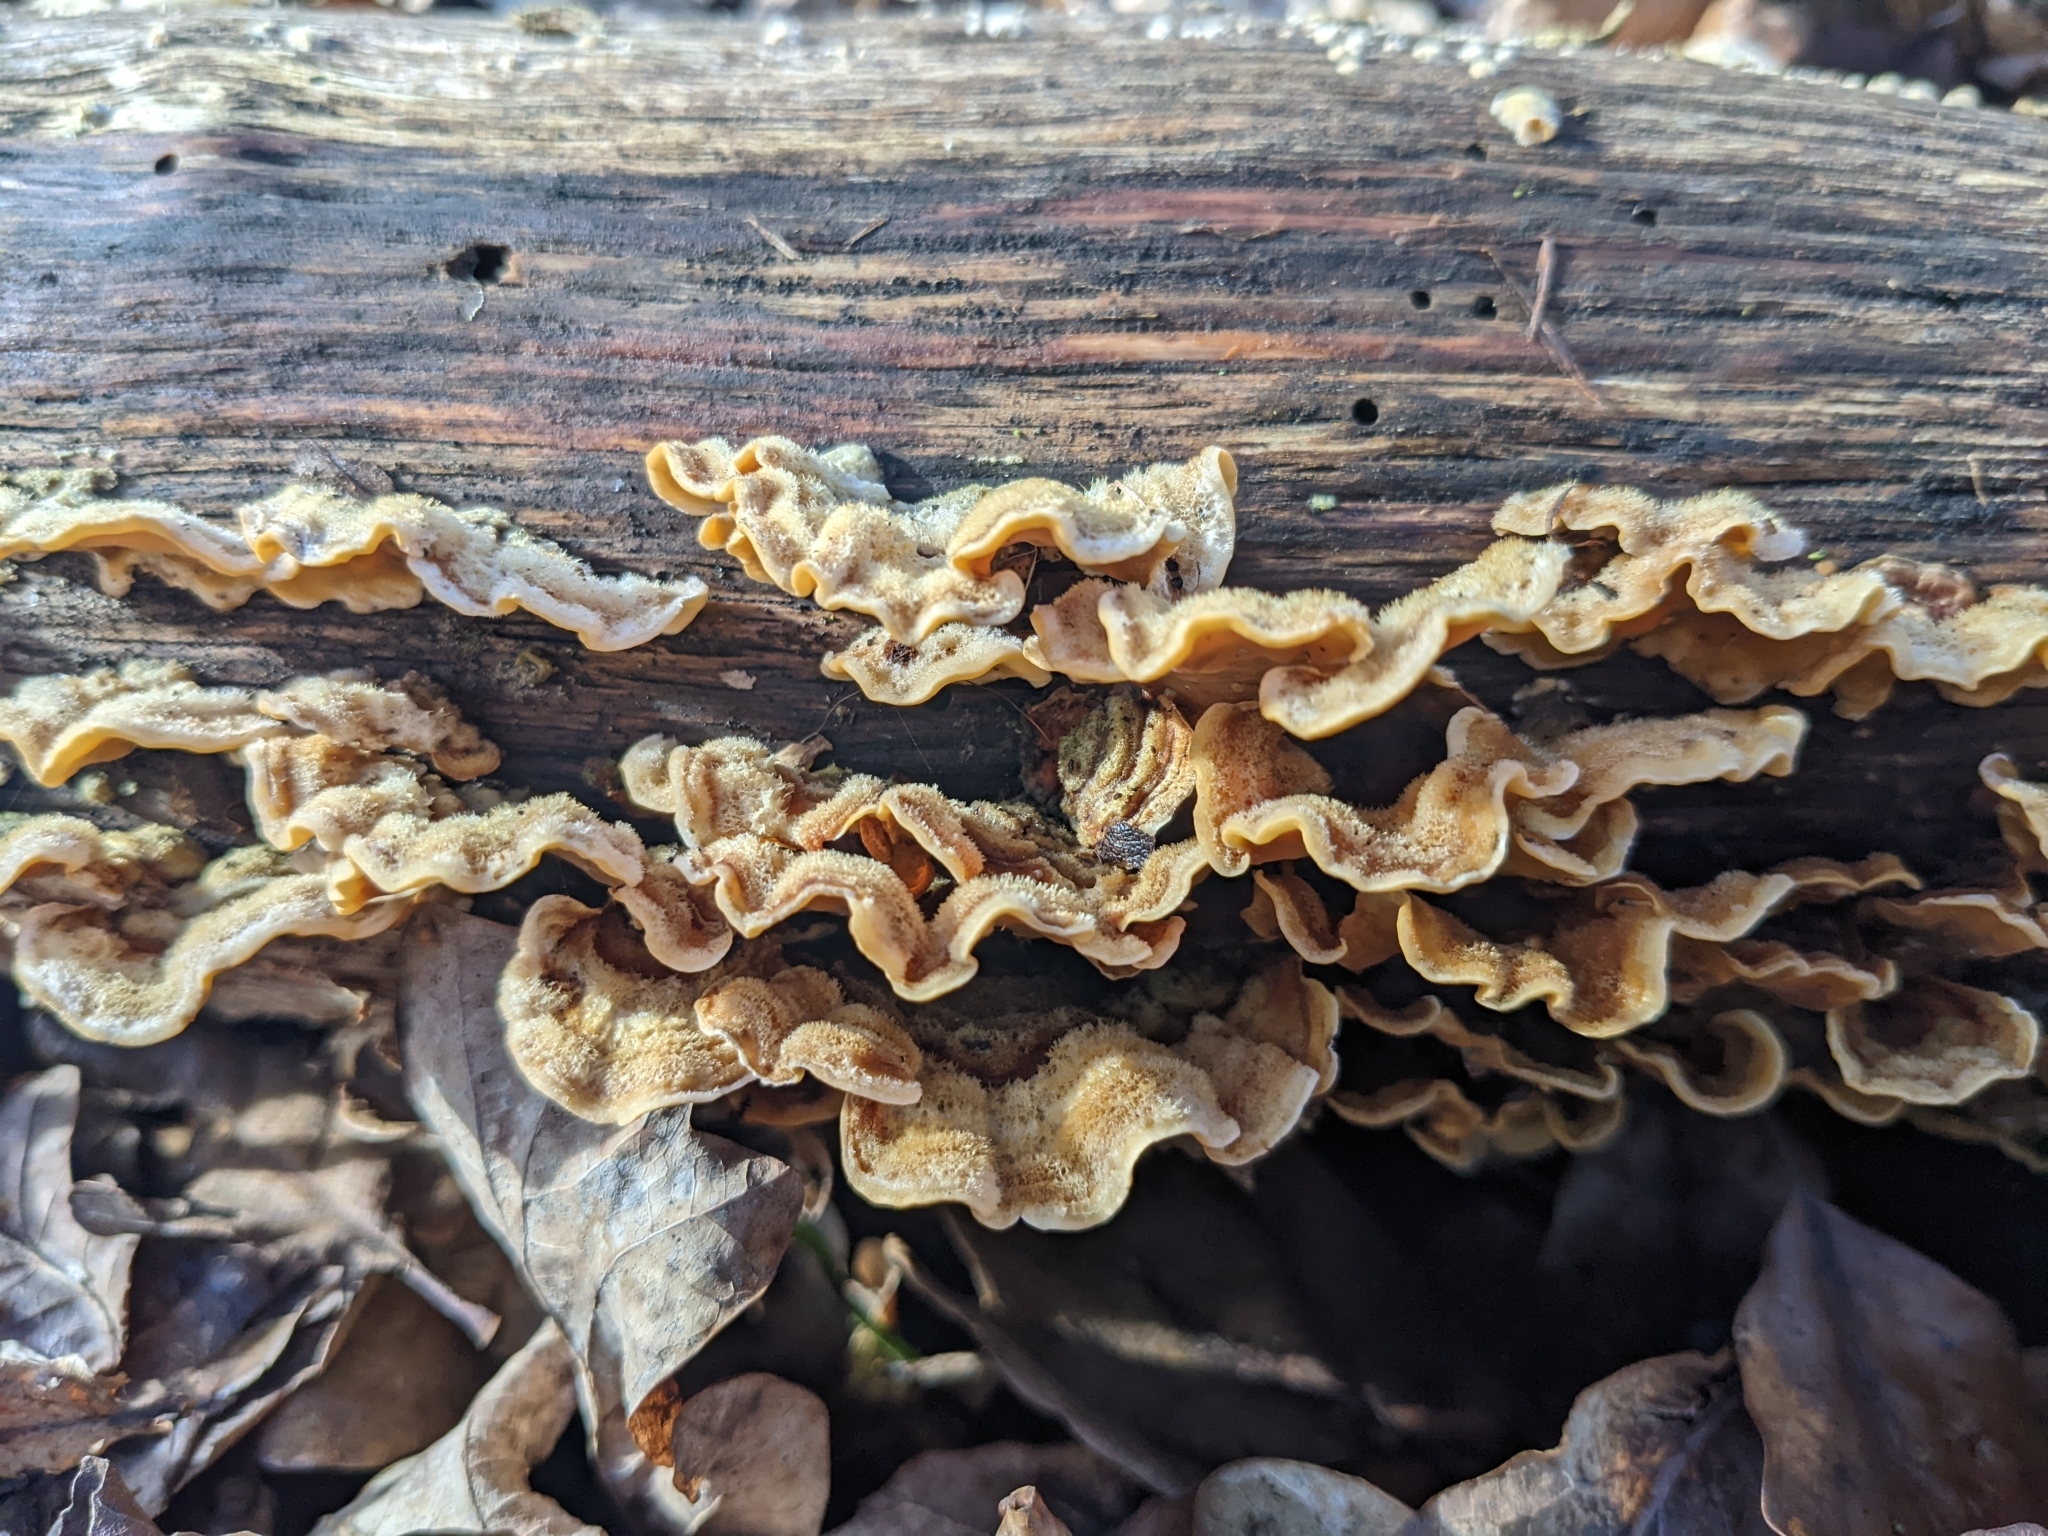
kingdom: Fungi
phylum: Basidiomycota
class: Agaricomycetes
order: Russulales
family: Stereaceae
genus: Stereum
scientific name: Stereum hirsutum
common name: Hairy curtain crust
